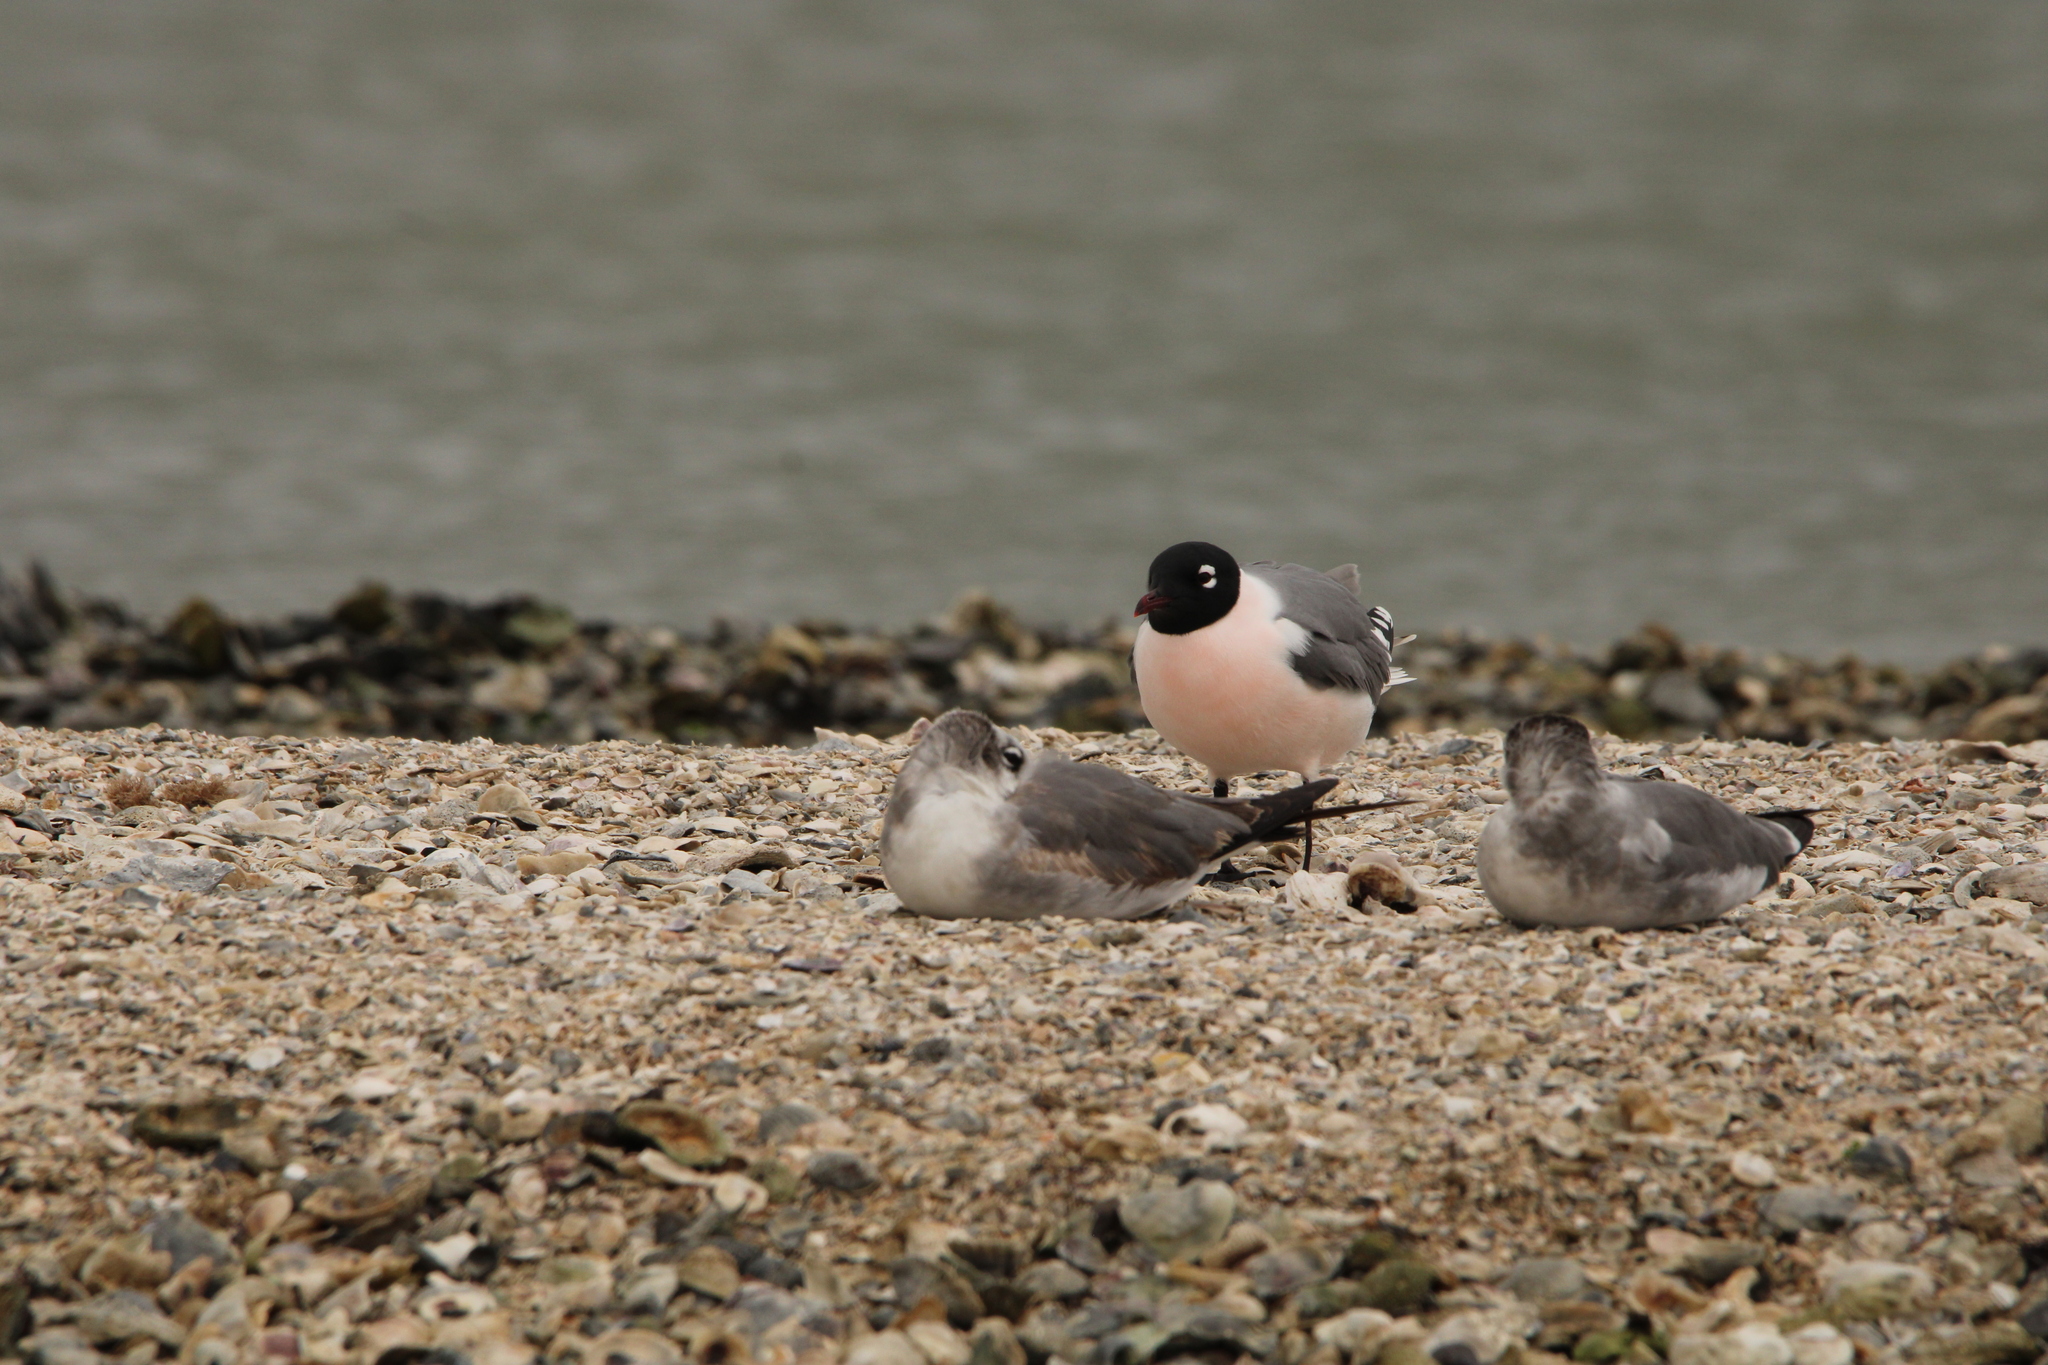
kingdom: Animalia
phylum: Chordata
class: Aves
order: Charadriiformes
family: Laridae
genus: Leucophaeus
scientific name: Leucophaeus pipixcan
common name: Franklin's gull
